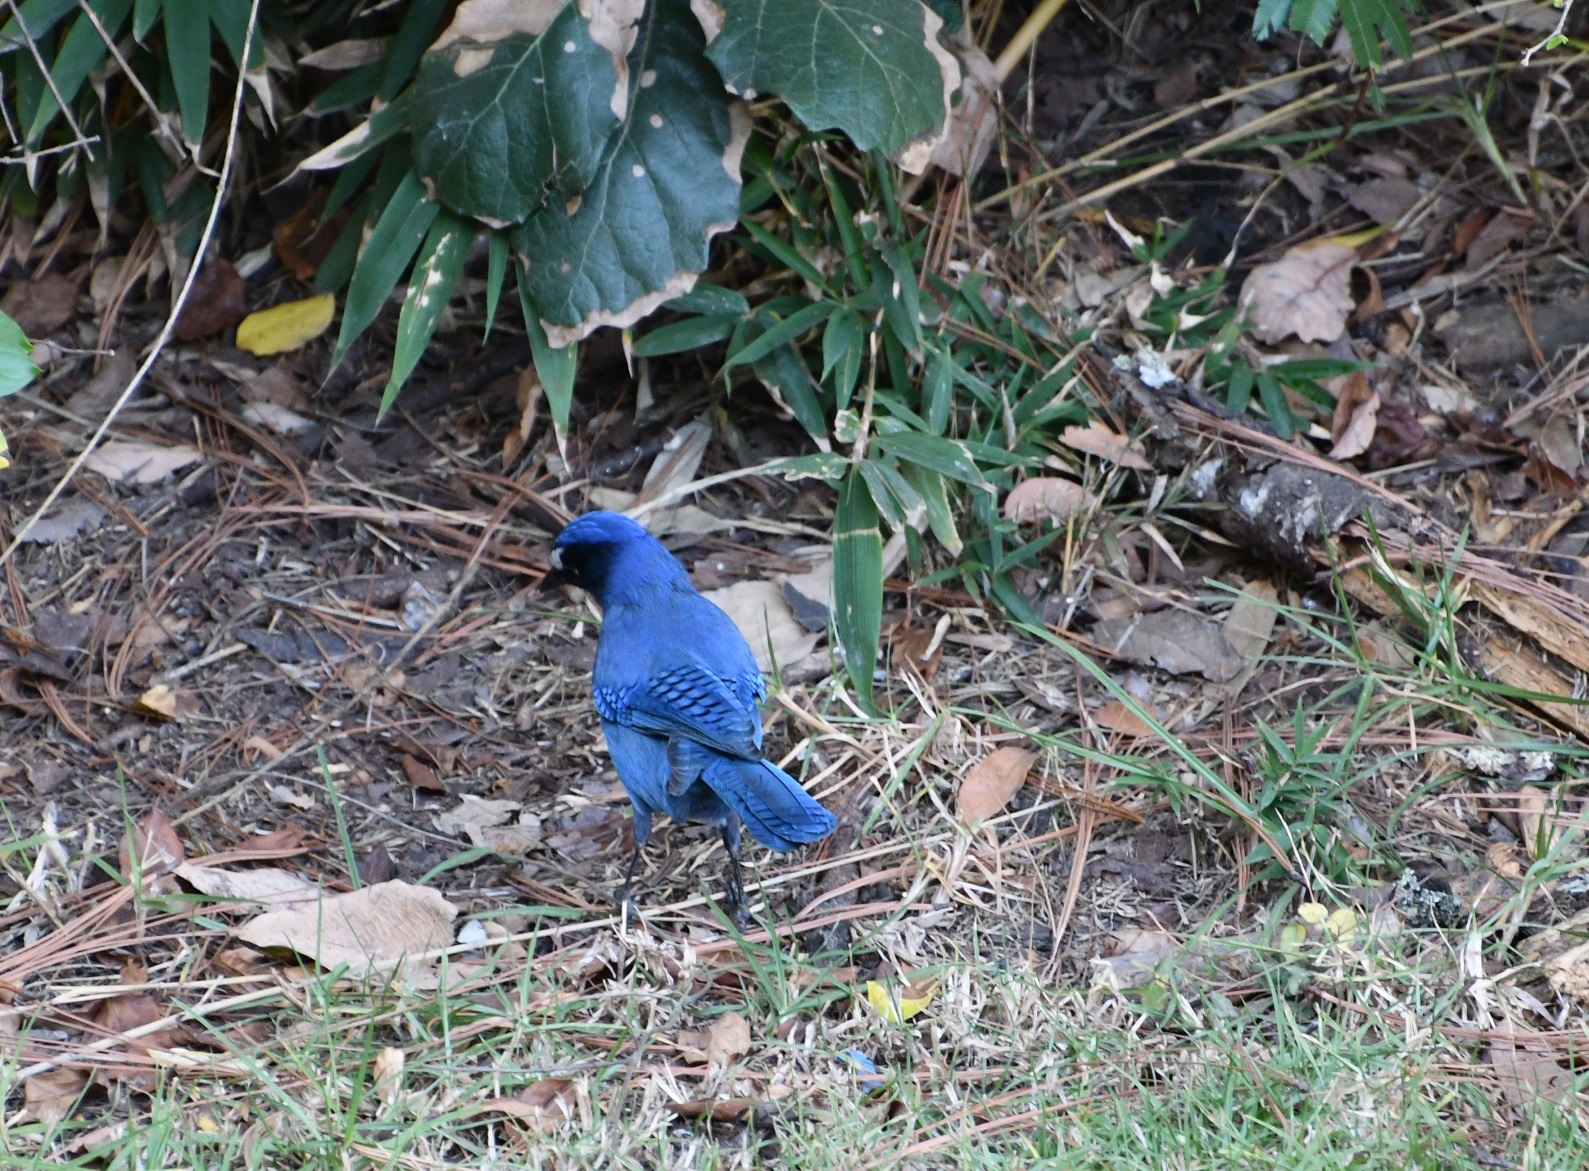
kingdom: Animalia
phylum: Chordata
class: Aves
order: Passeriformes
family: Corvidae
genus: Cyanocitta
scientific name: Cyanocitta stelleri
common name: Steller's jay
